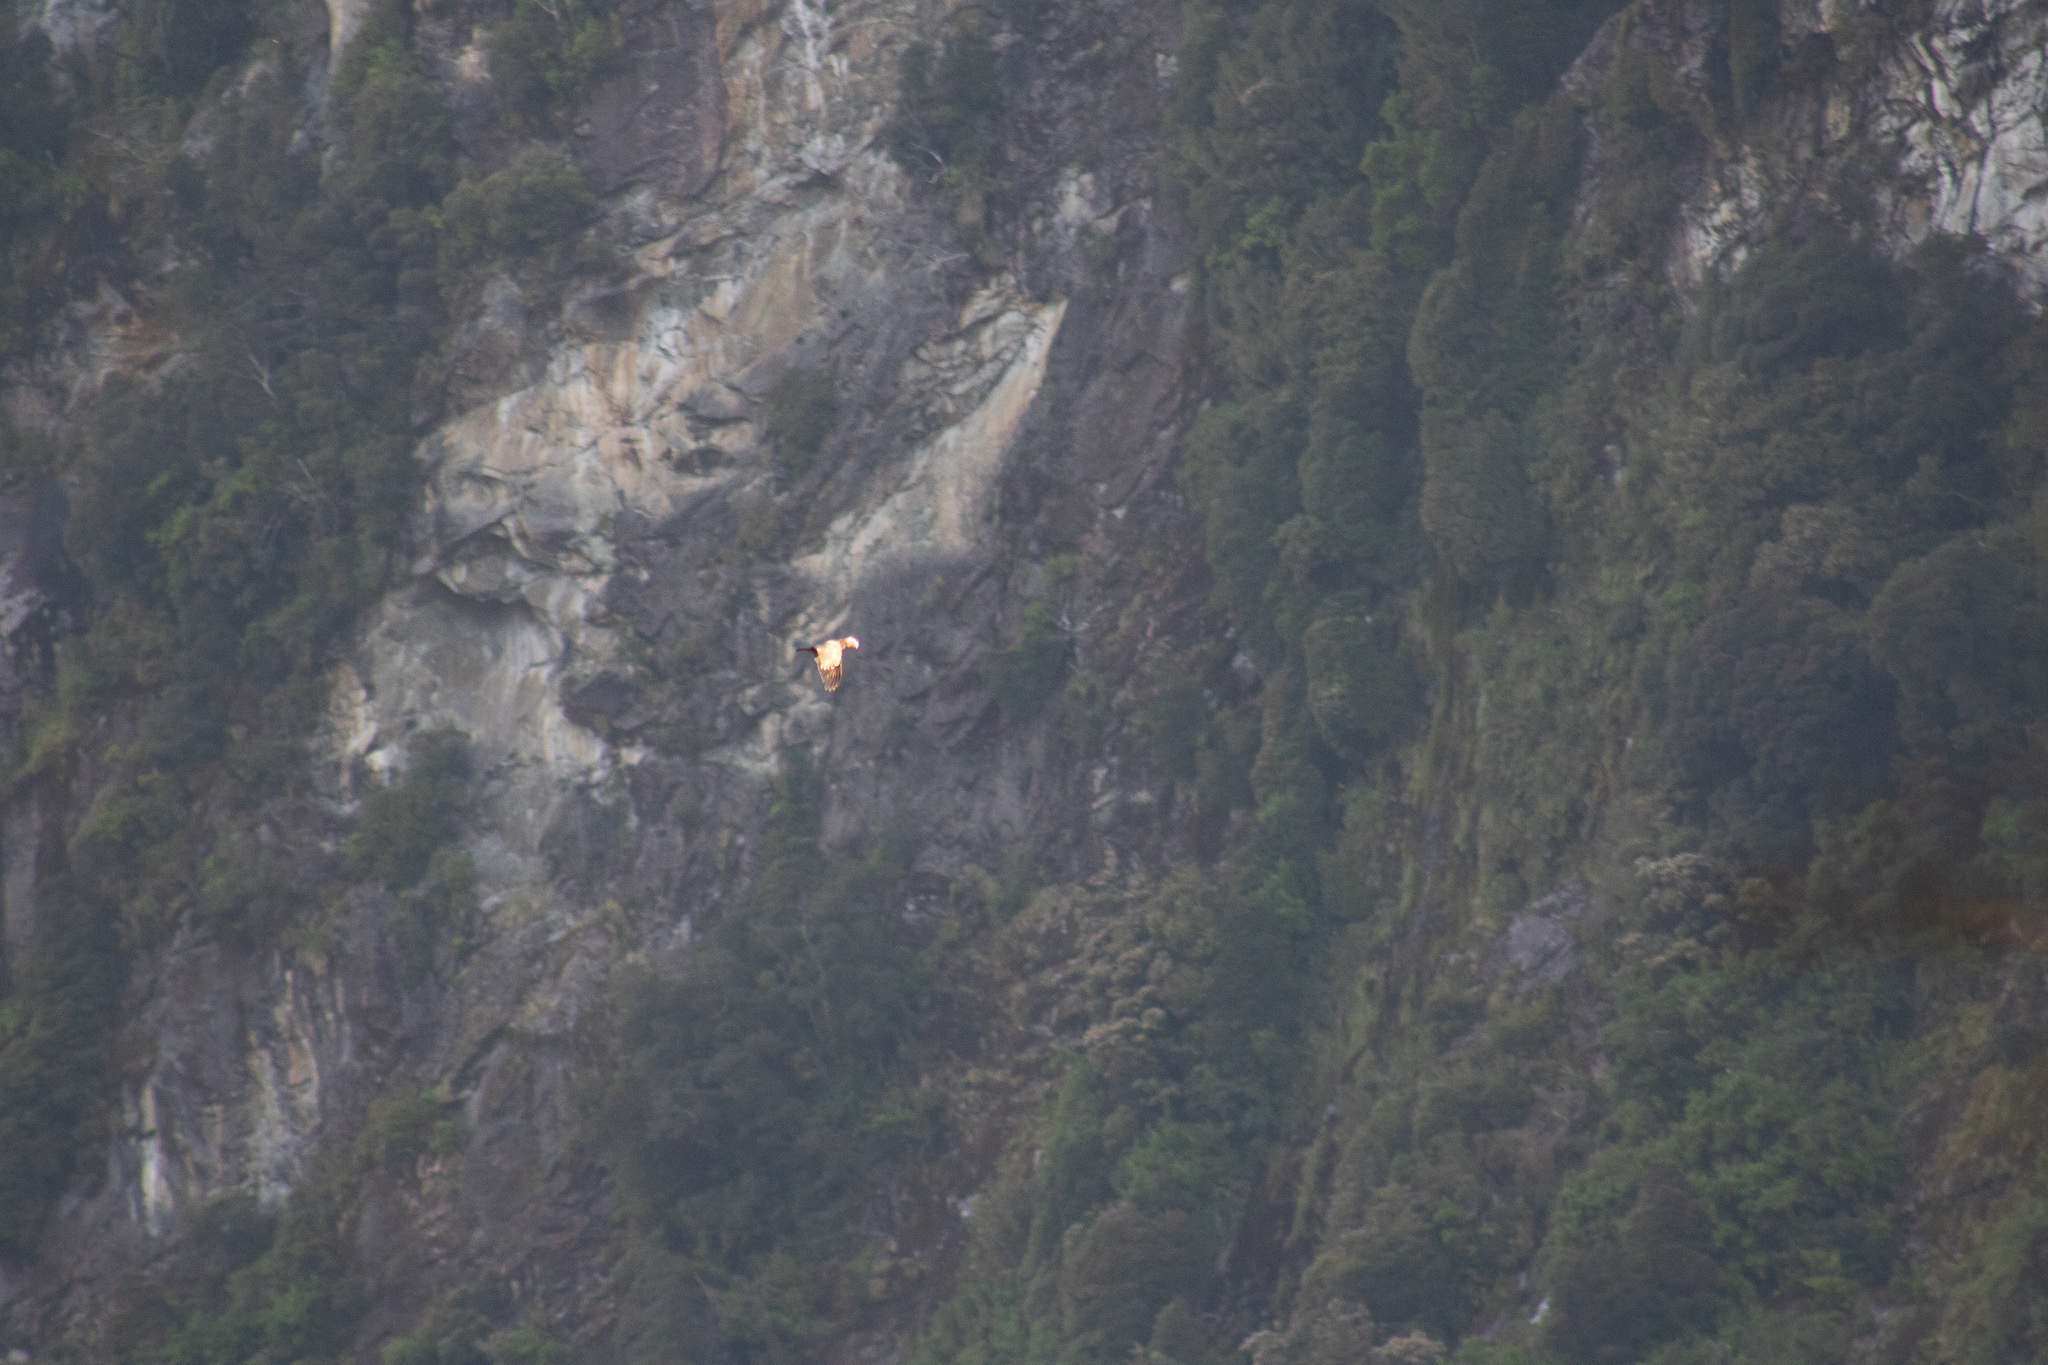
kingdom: Animalia
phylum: Chordata
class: Aves
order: Psittaciformes
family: Psittacidae
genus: Nestor
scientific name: Nestor meridionalis
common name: New zealand kaka
